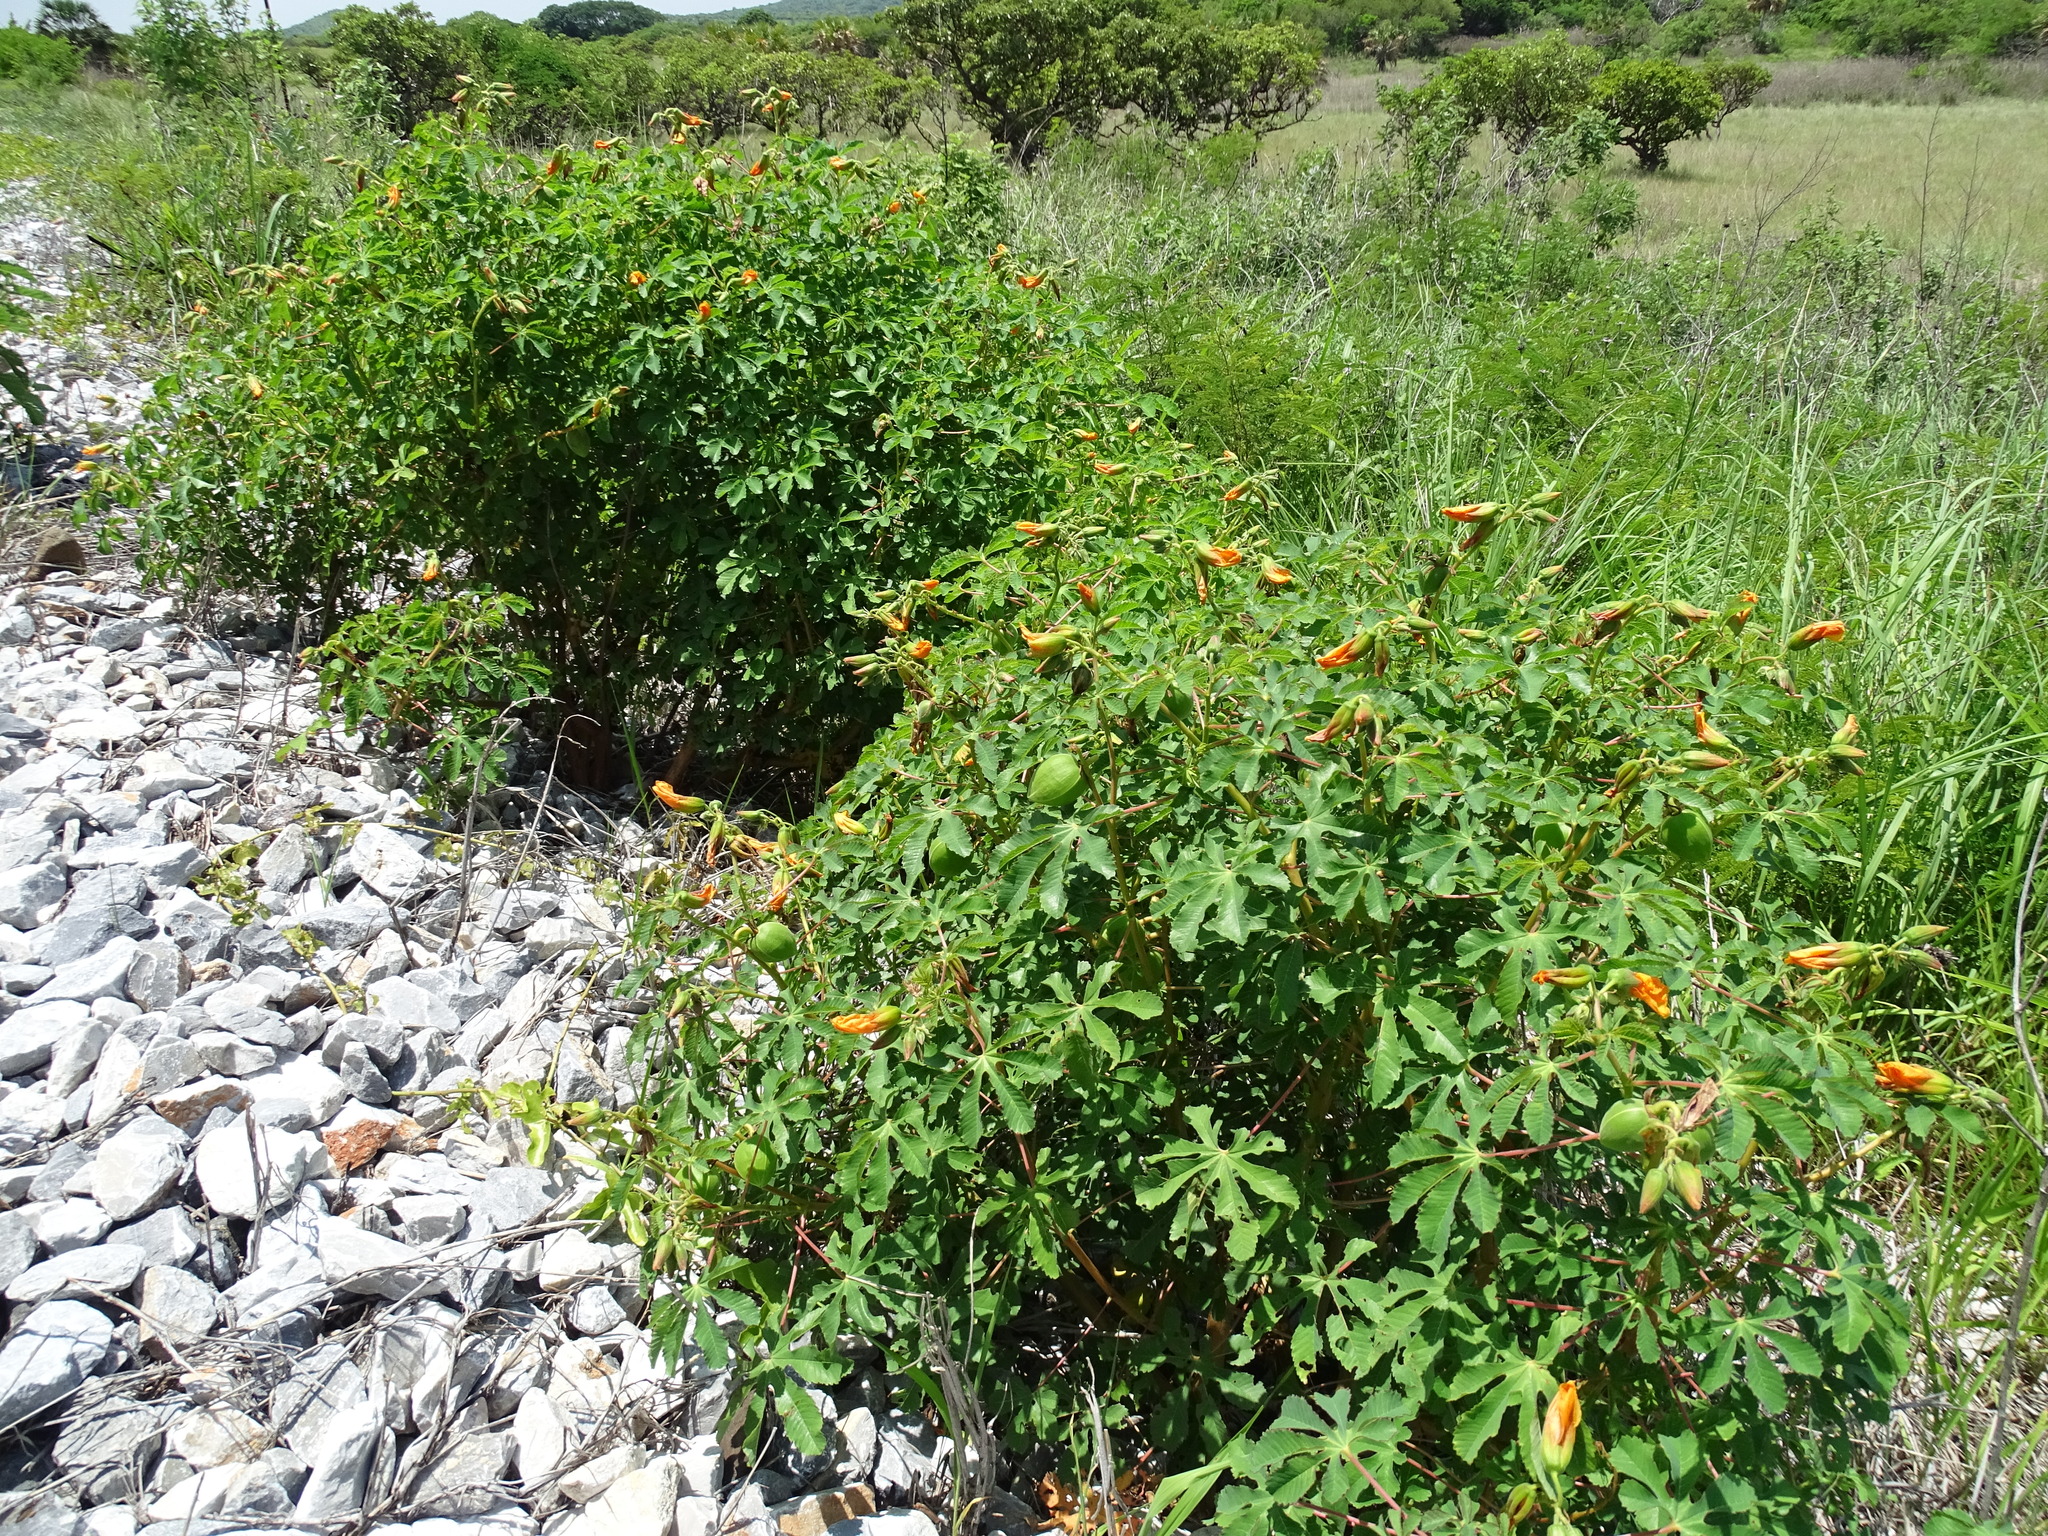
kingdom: Plantae
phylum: Tracheophyta
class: Magnoliopsida
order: Malvales
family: Cochlospermaceae
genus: Cochlospermum
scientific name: Cochlospermum wrightii
